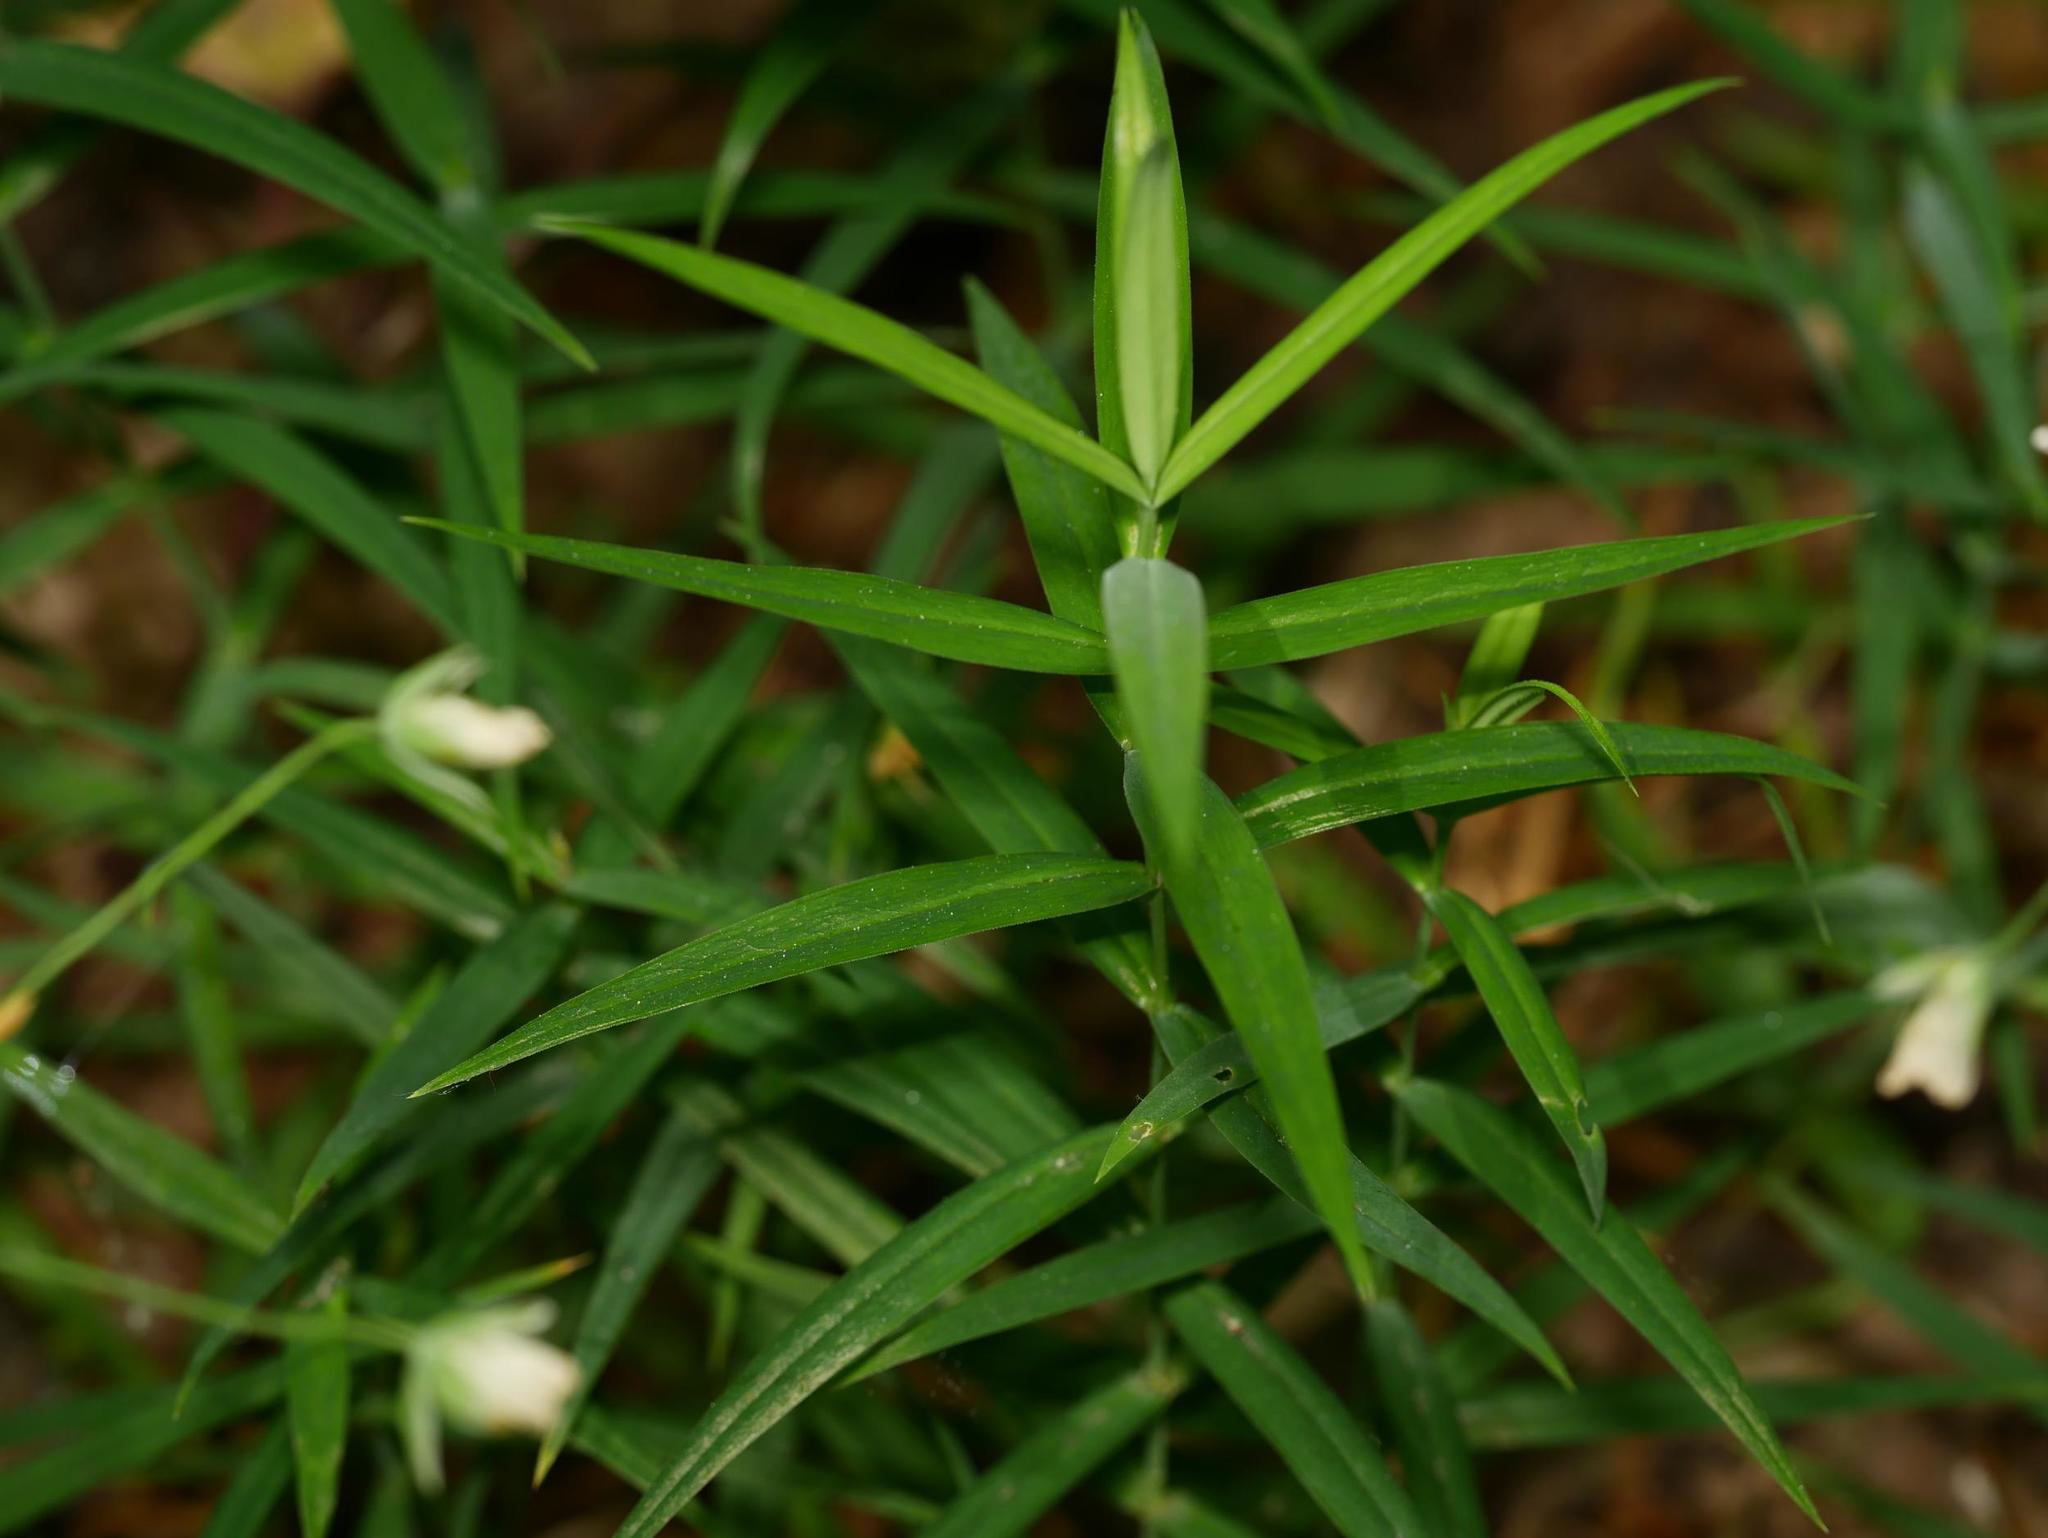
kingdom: Plantae
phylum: Tracheophyta
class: Magnoliopsida
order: Caryophyllales
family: Caryophyllaceae
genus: Rabelera
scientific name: Rabelera holostea
